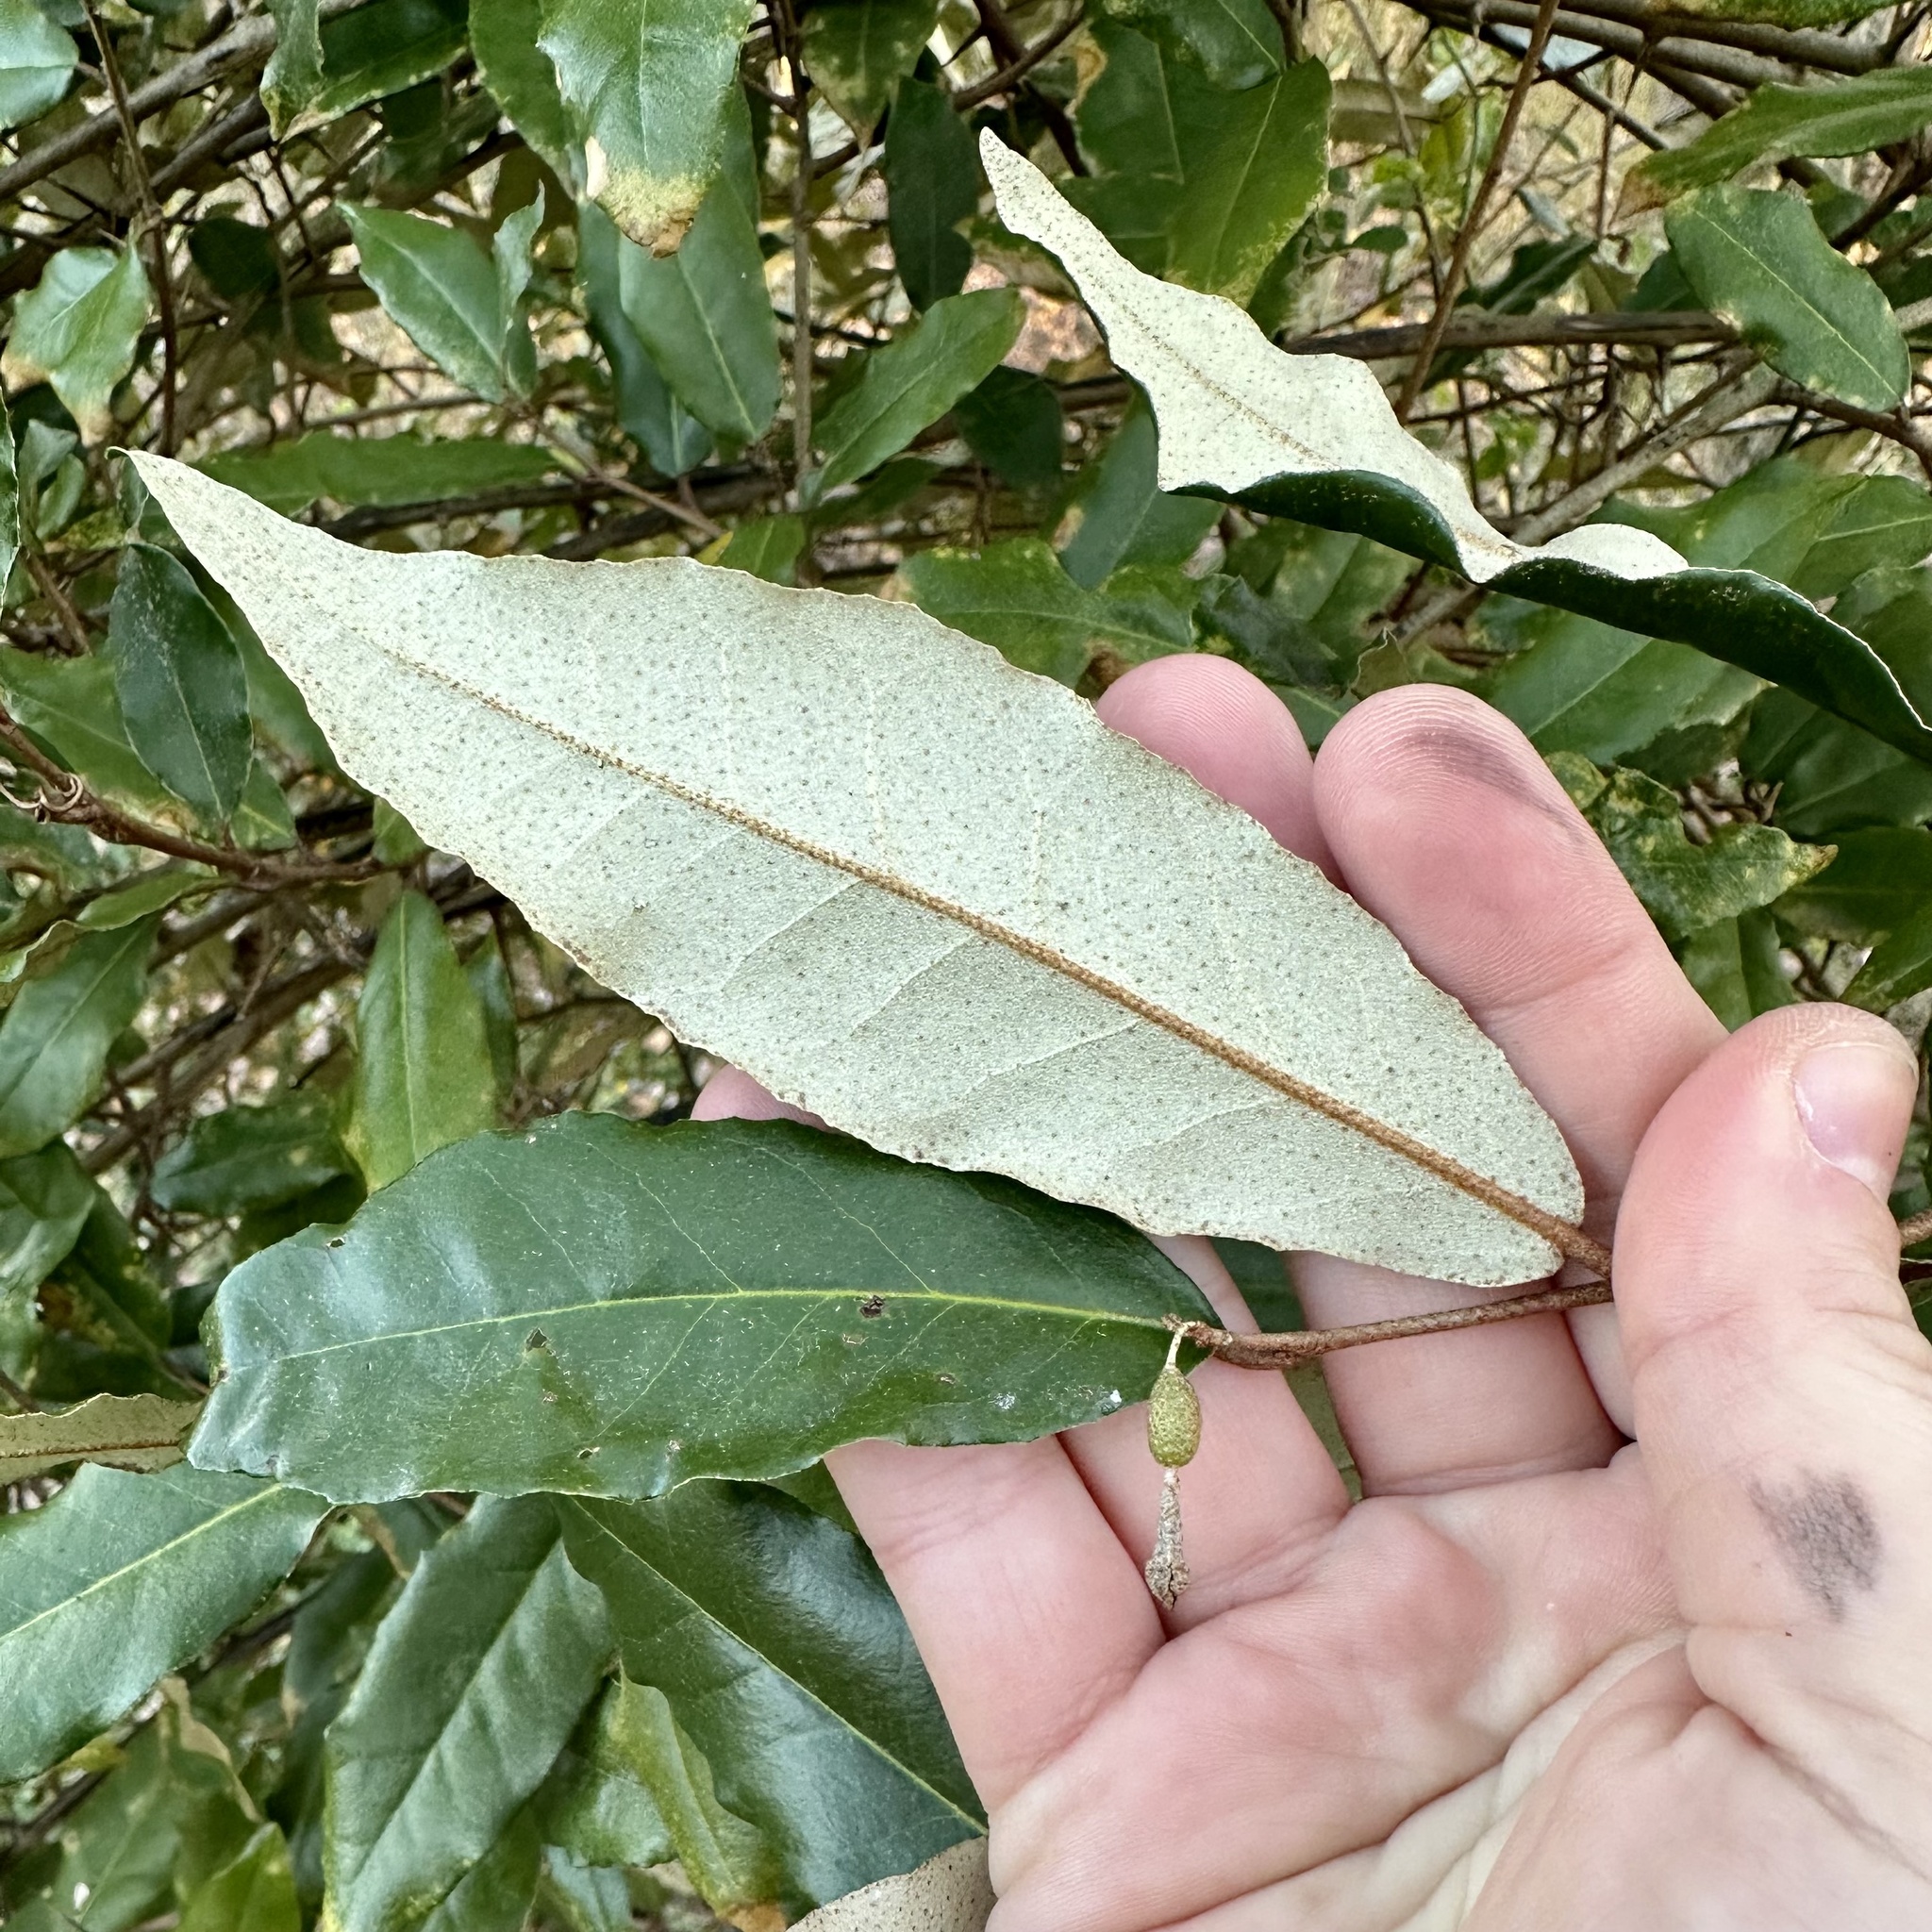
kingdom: Plantae
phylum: Tracheophyta
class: Magnoliopsida
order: Rosales
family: Elaeagnaceae
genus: Elaeagnus
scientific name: Elaeagnus pungens
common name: Spiny oleaster
